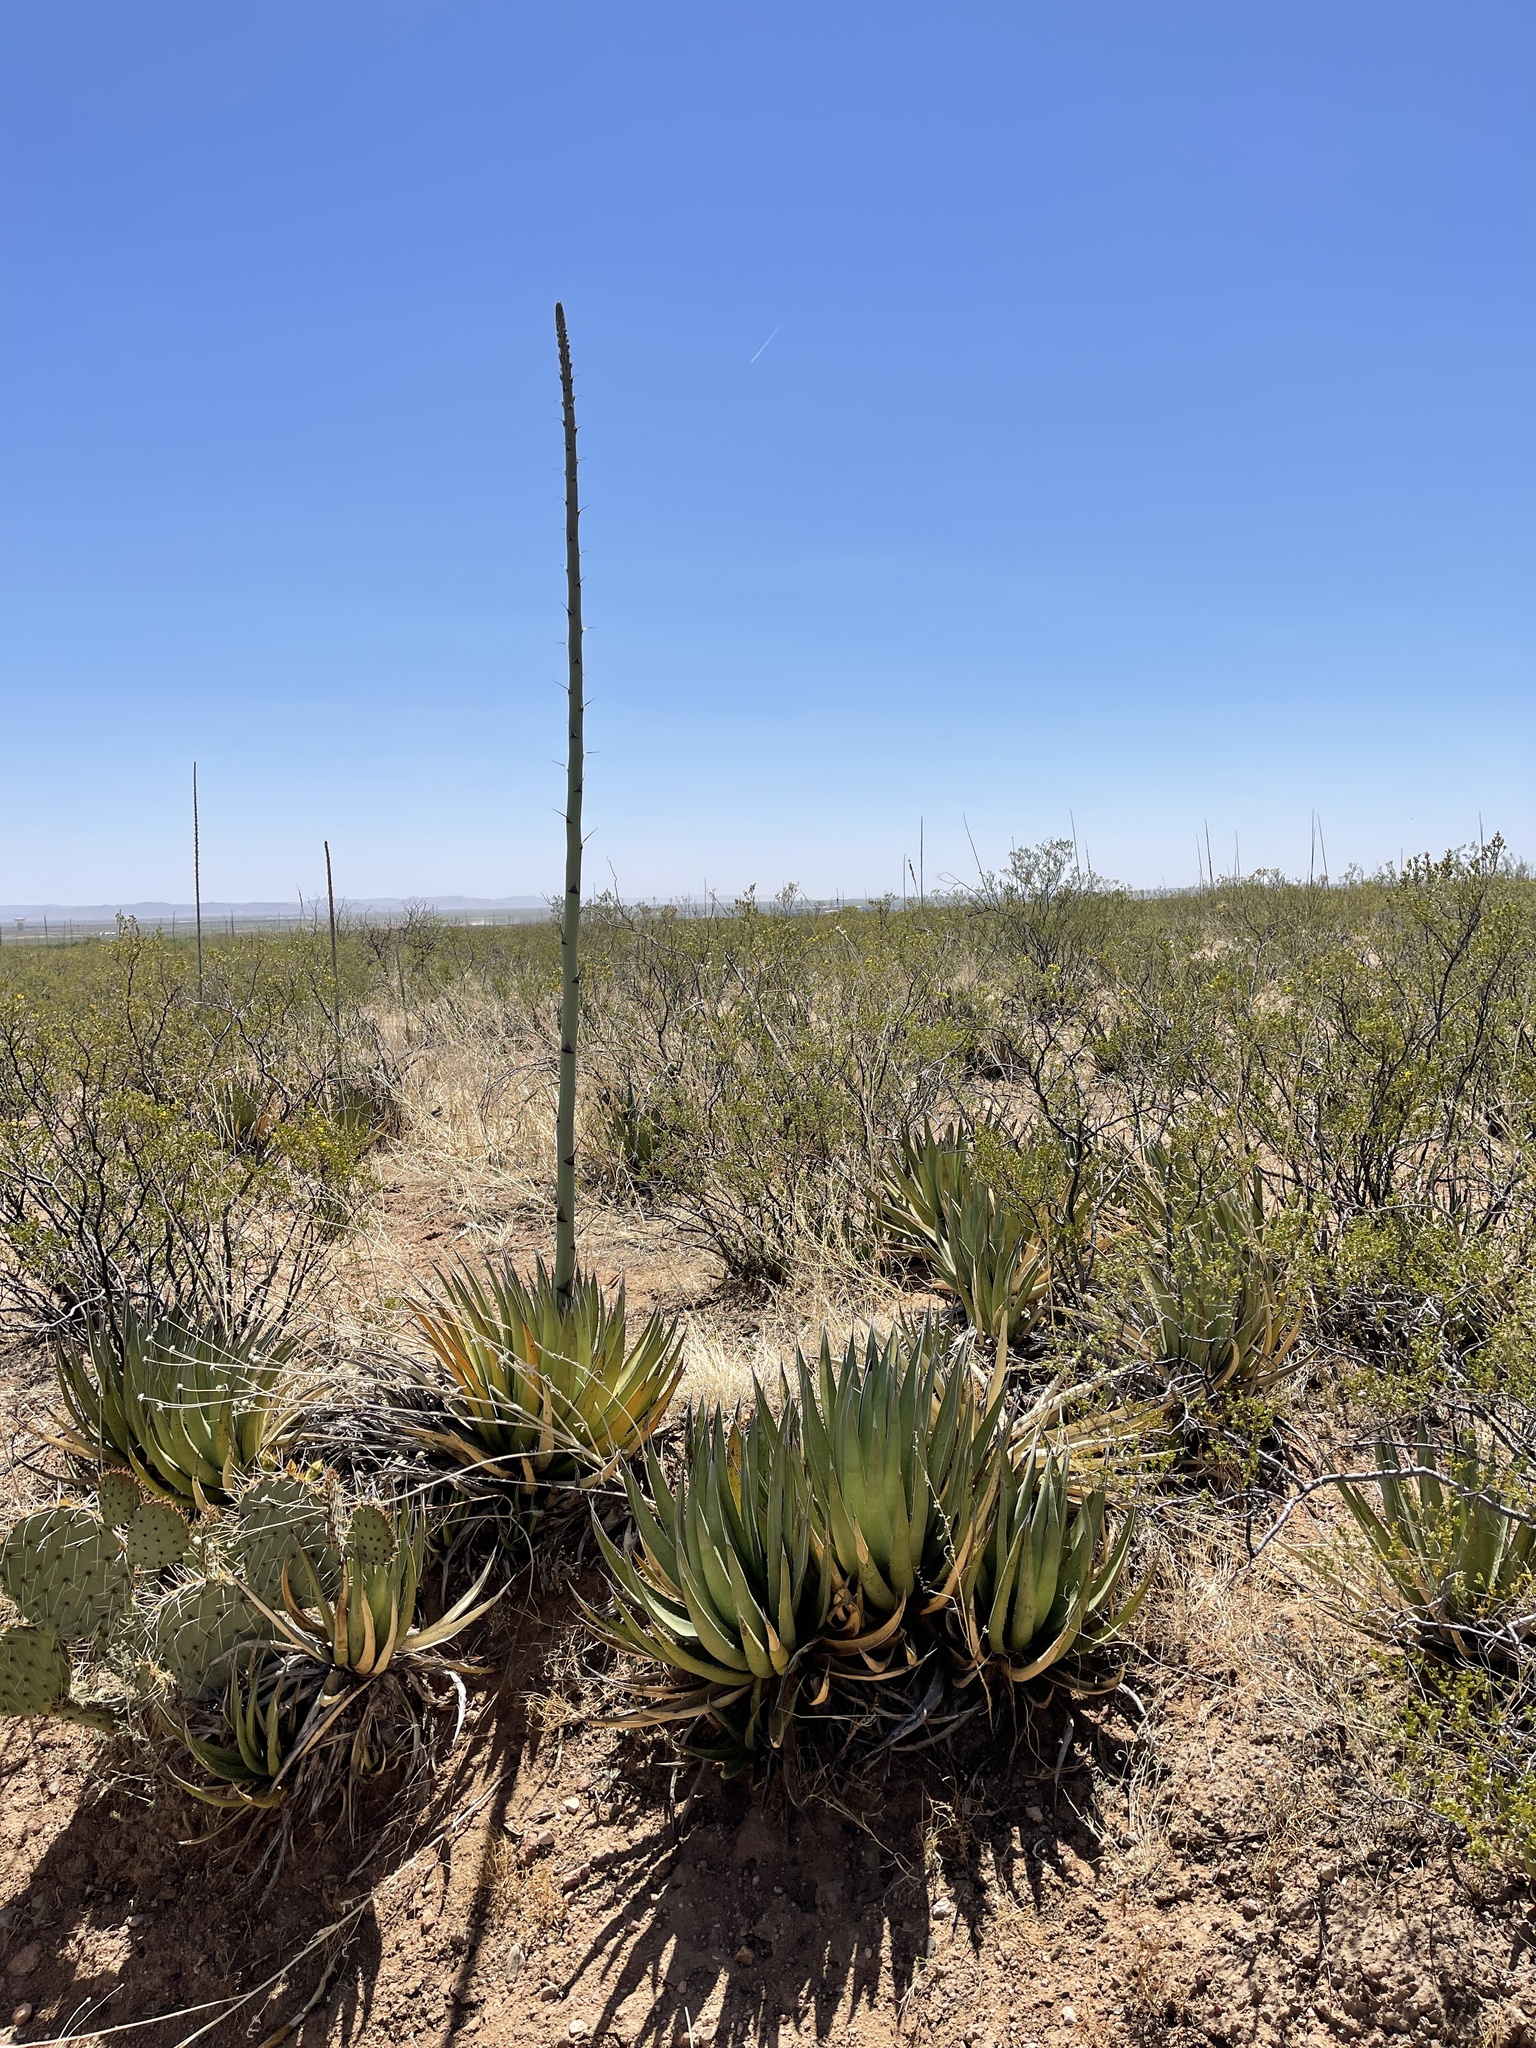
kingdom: Plantae
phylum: Tracheophyta
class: Liliopsida
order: Asparagales
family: Asparagaceae
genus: Agave
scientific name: Agave lechuguilla
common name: Lecheguilla agave
